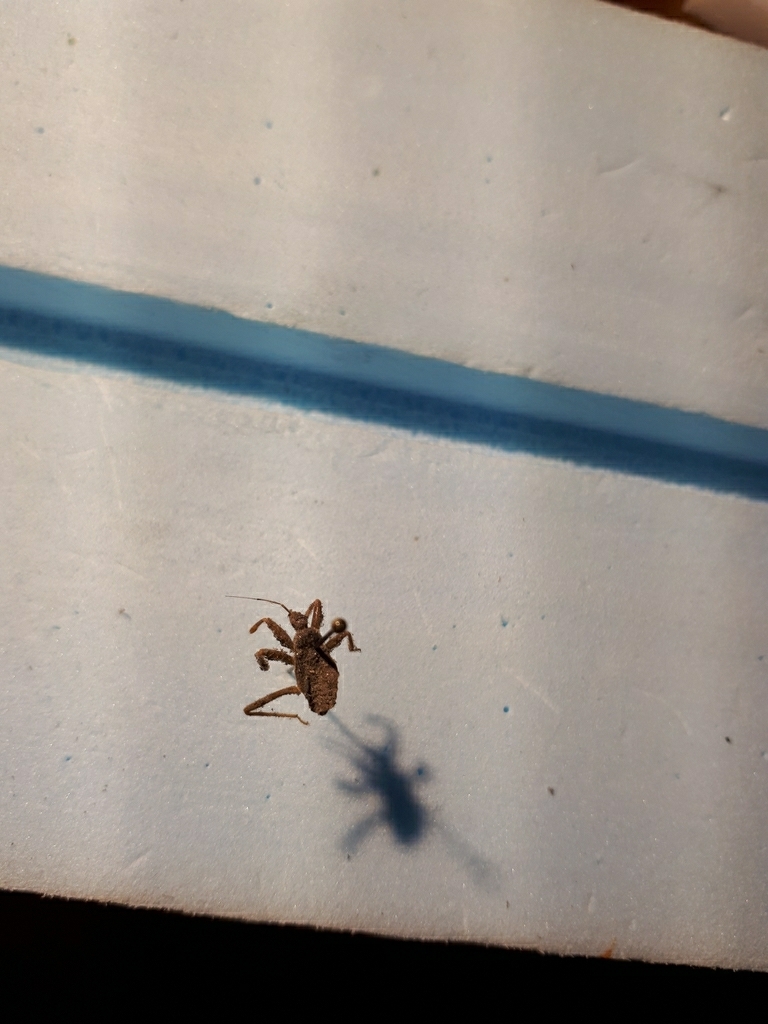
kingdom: Animalia
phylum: Arthropoda
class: Insecta
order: Hemiptera
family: Reduviidae
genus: Reduvius
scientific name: Reduvius personatus
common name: Masked hunter
